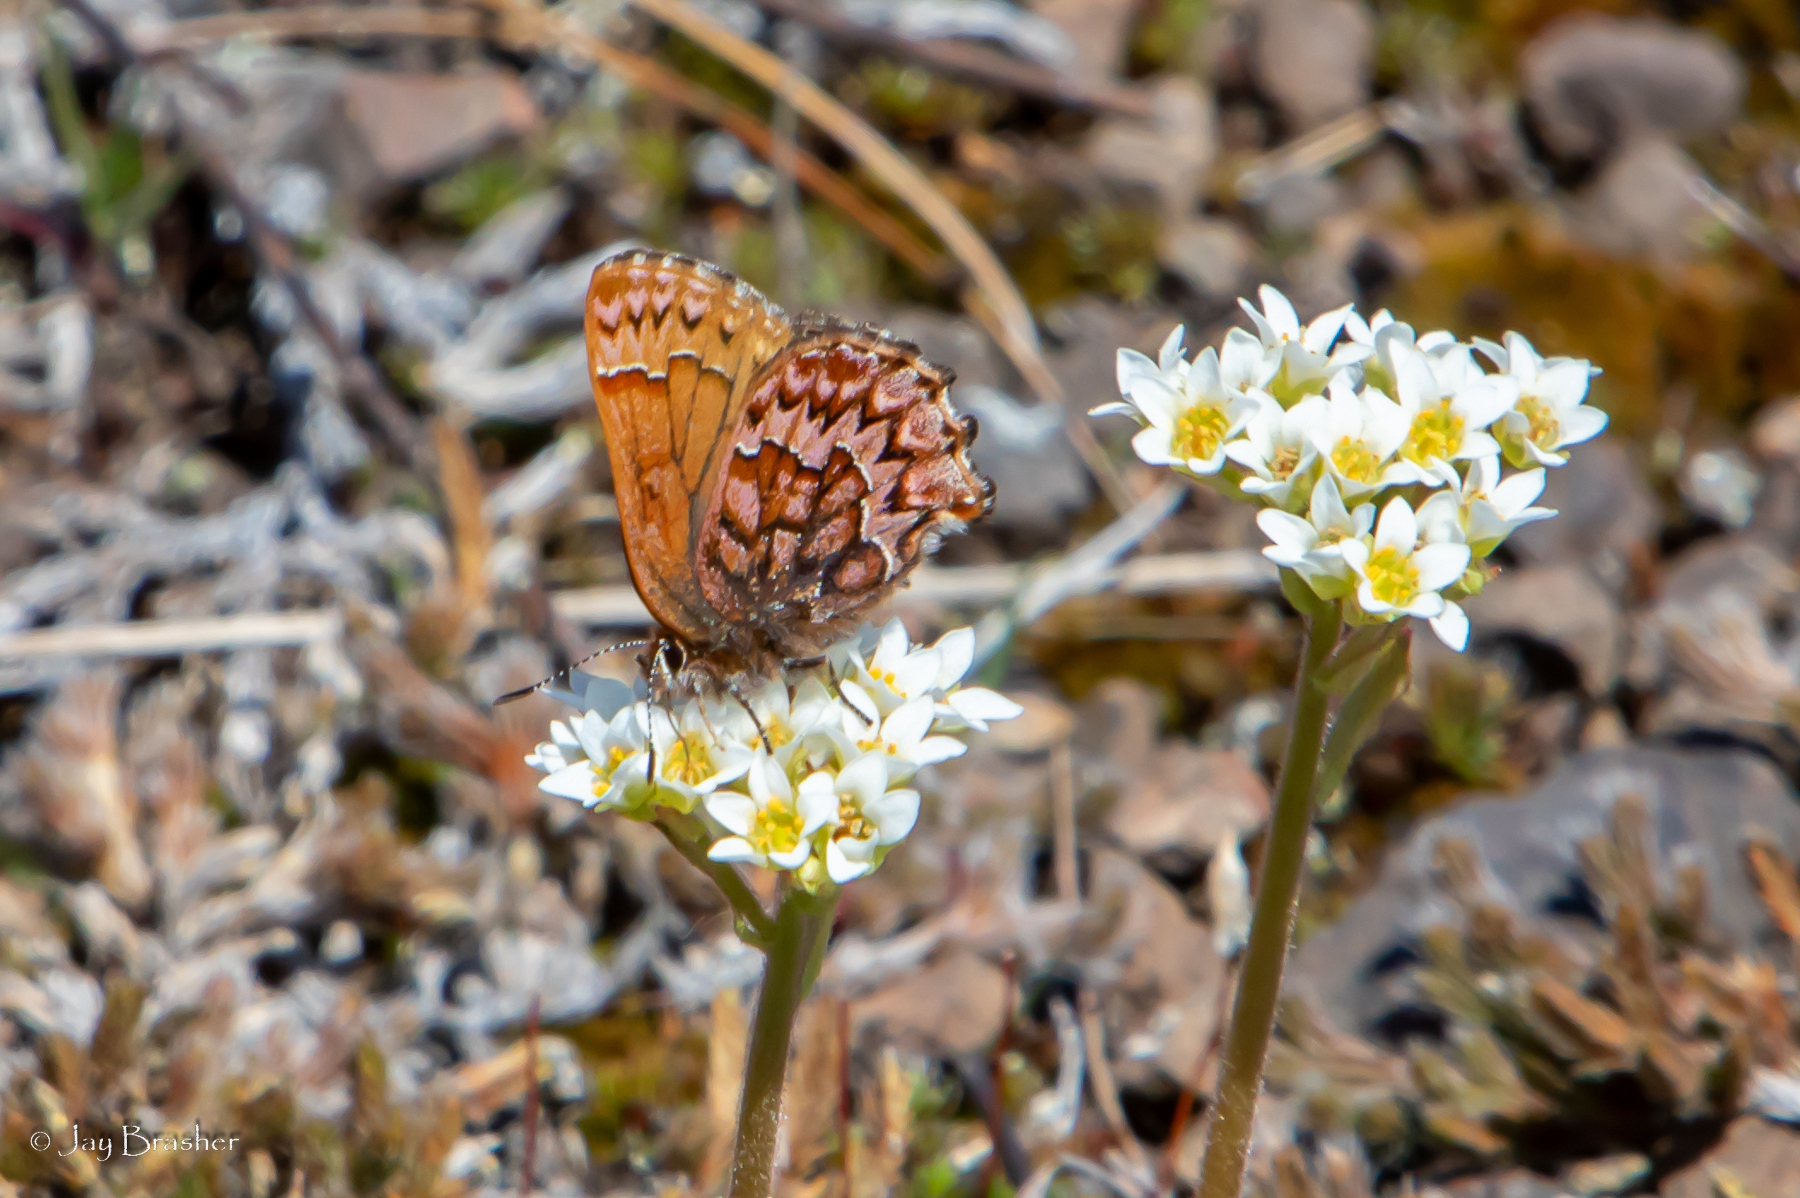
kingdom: Animalia
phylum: Arthropoda
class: Insecta
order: Lepidoptera
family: Lycaenidae
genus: Incisalia
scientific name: Incisalia eryphon
